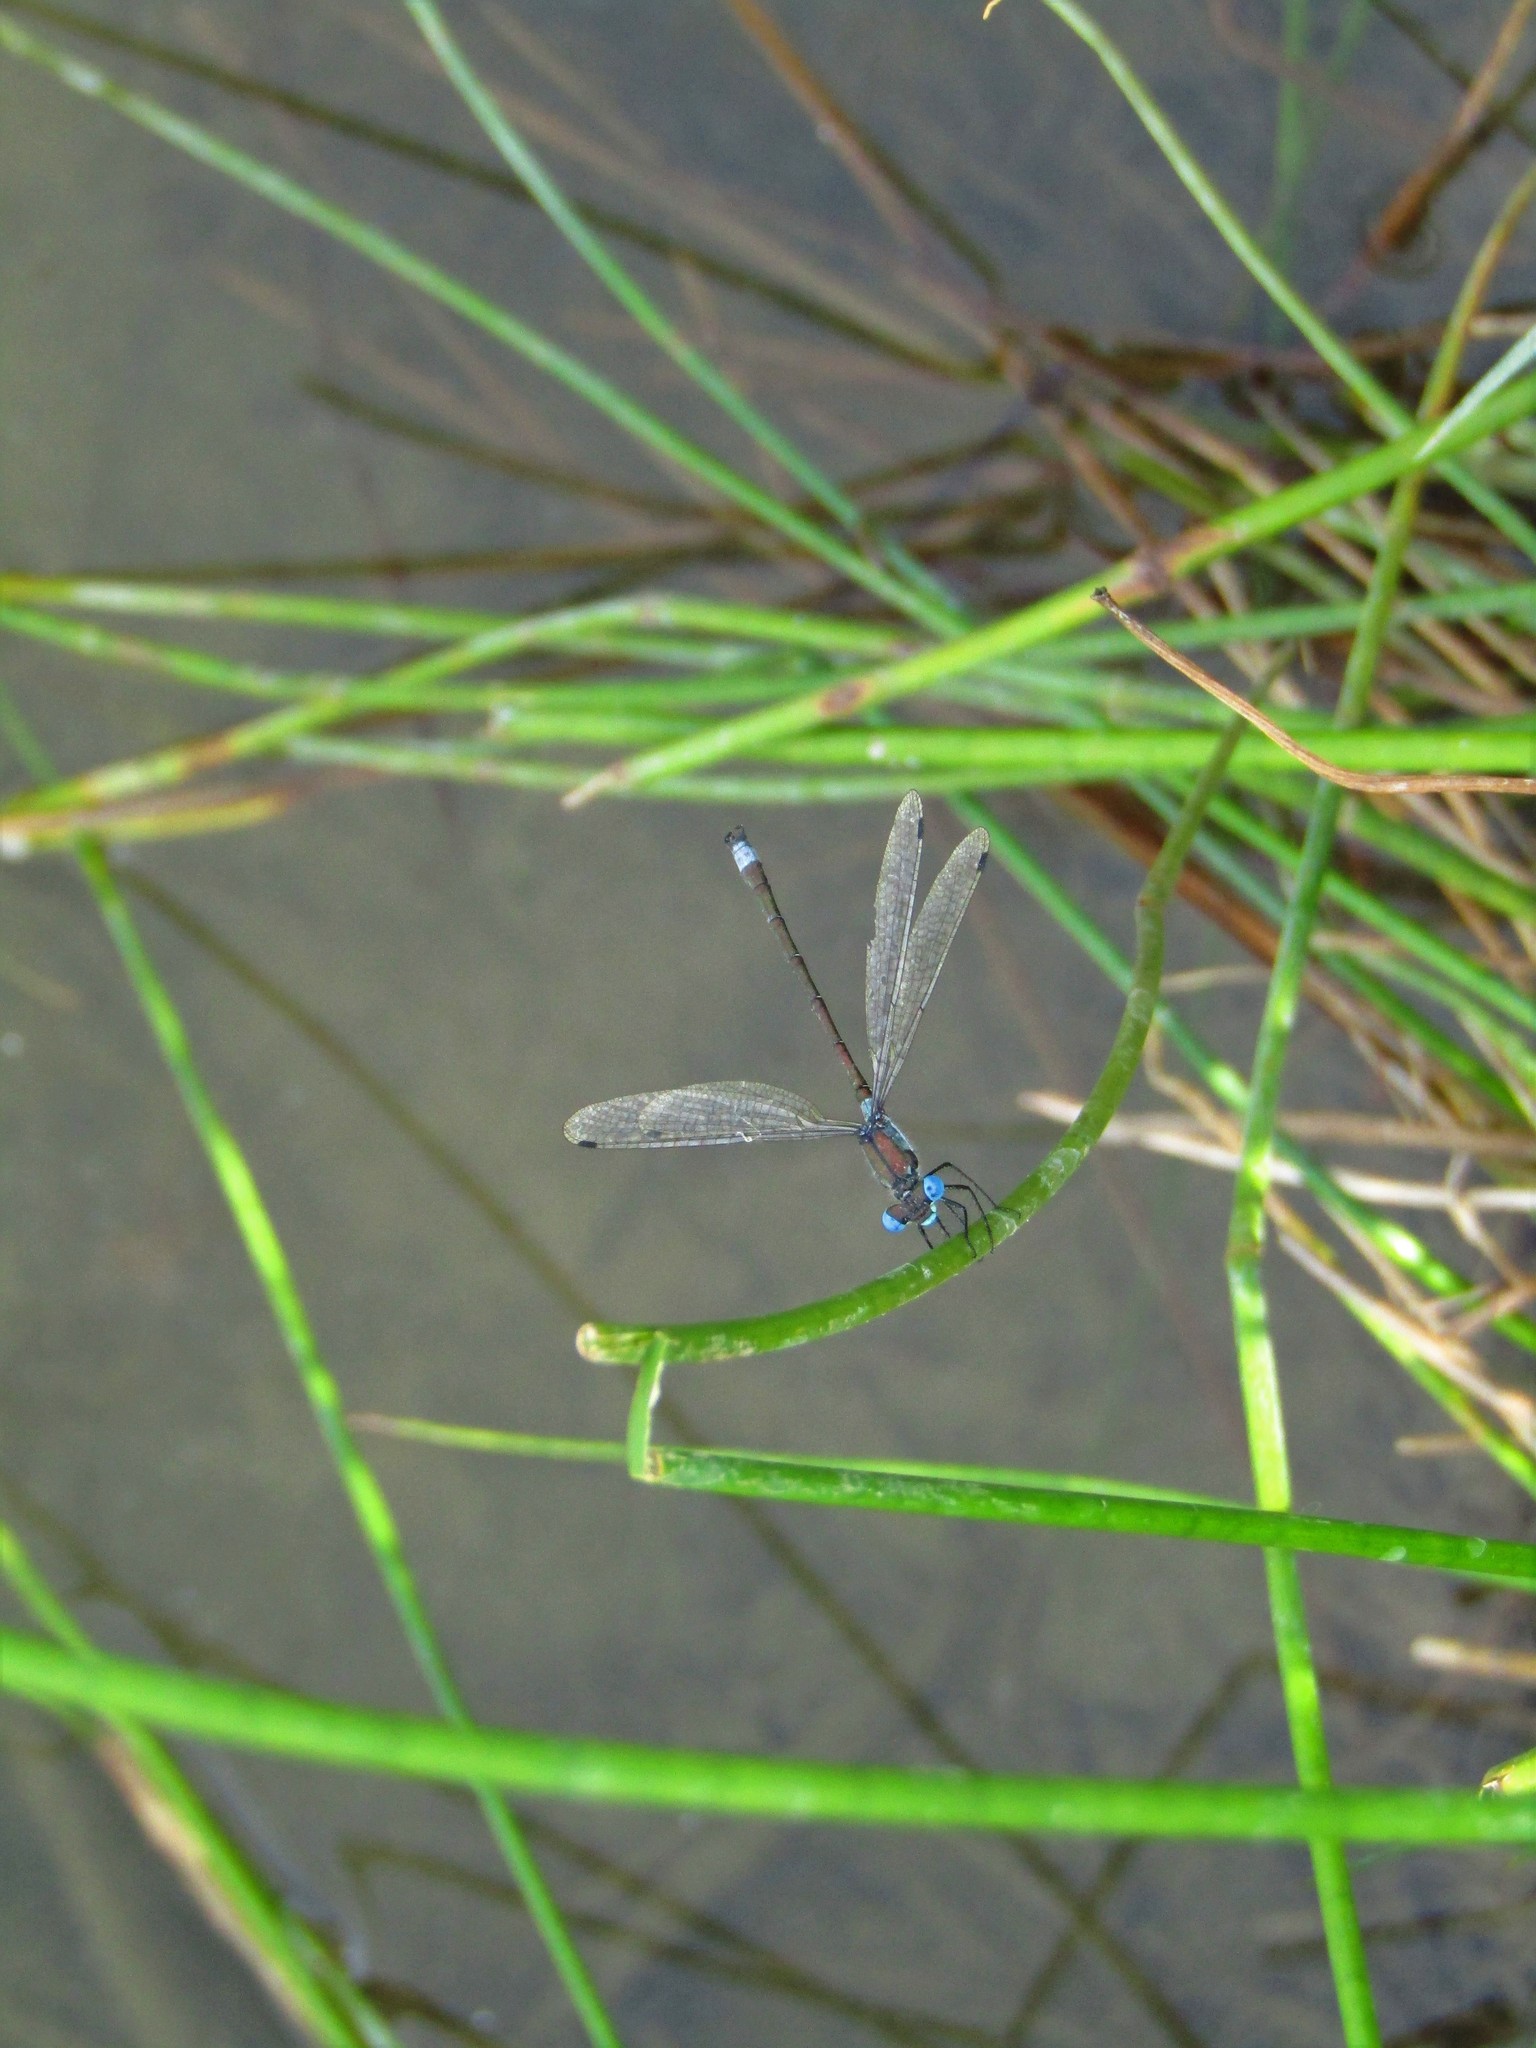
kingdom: Animalia
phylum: Arthropoda
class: Insecta
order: Odonata
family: Lestidae
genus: Lestes
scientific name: Lestes dryas
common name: Scarce emerald damselfly
